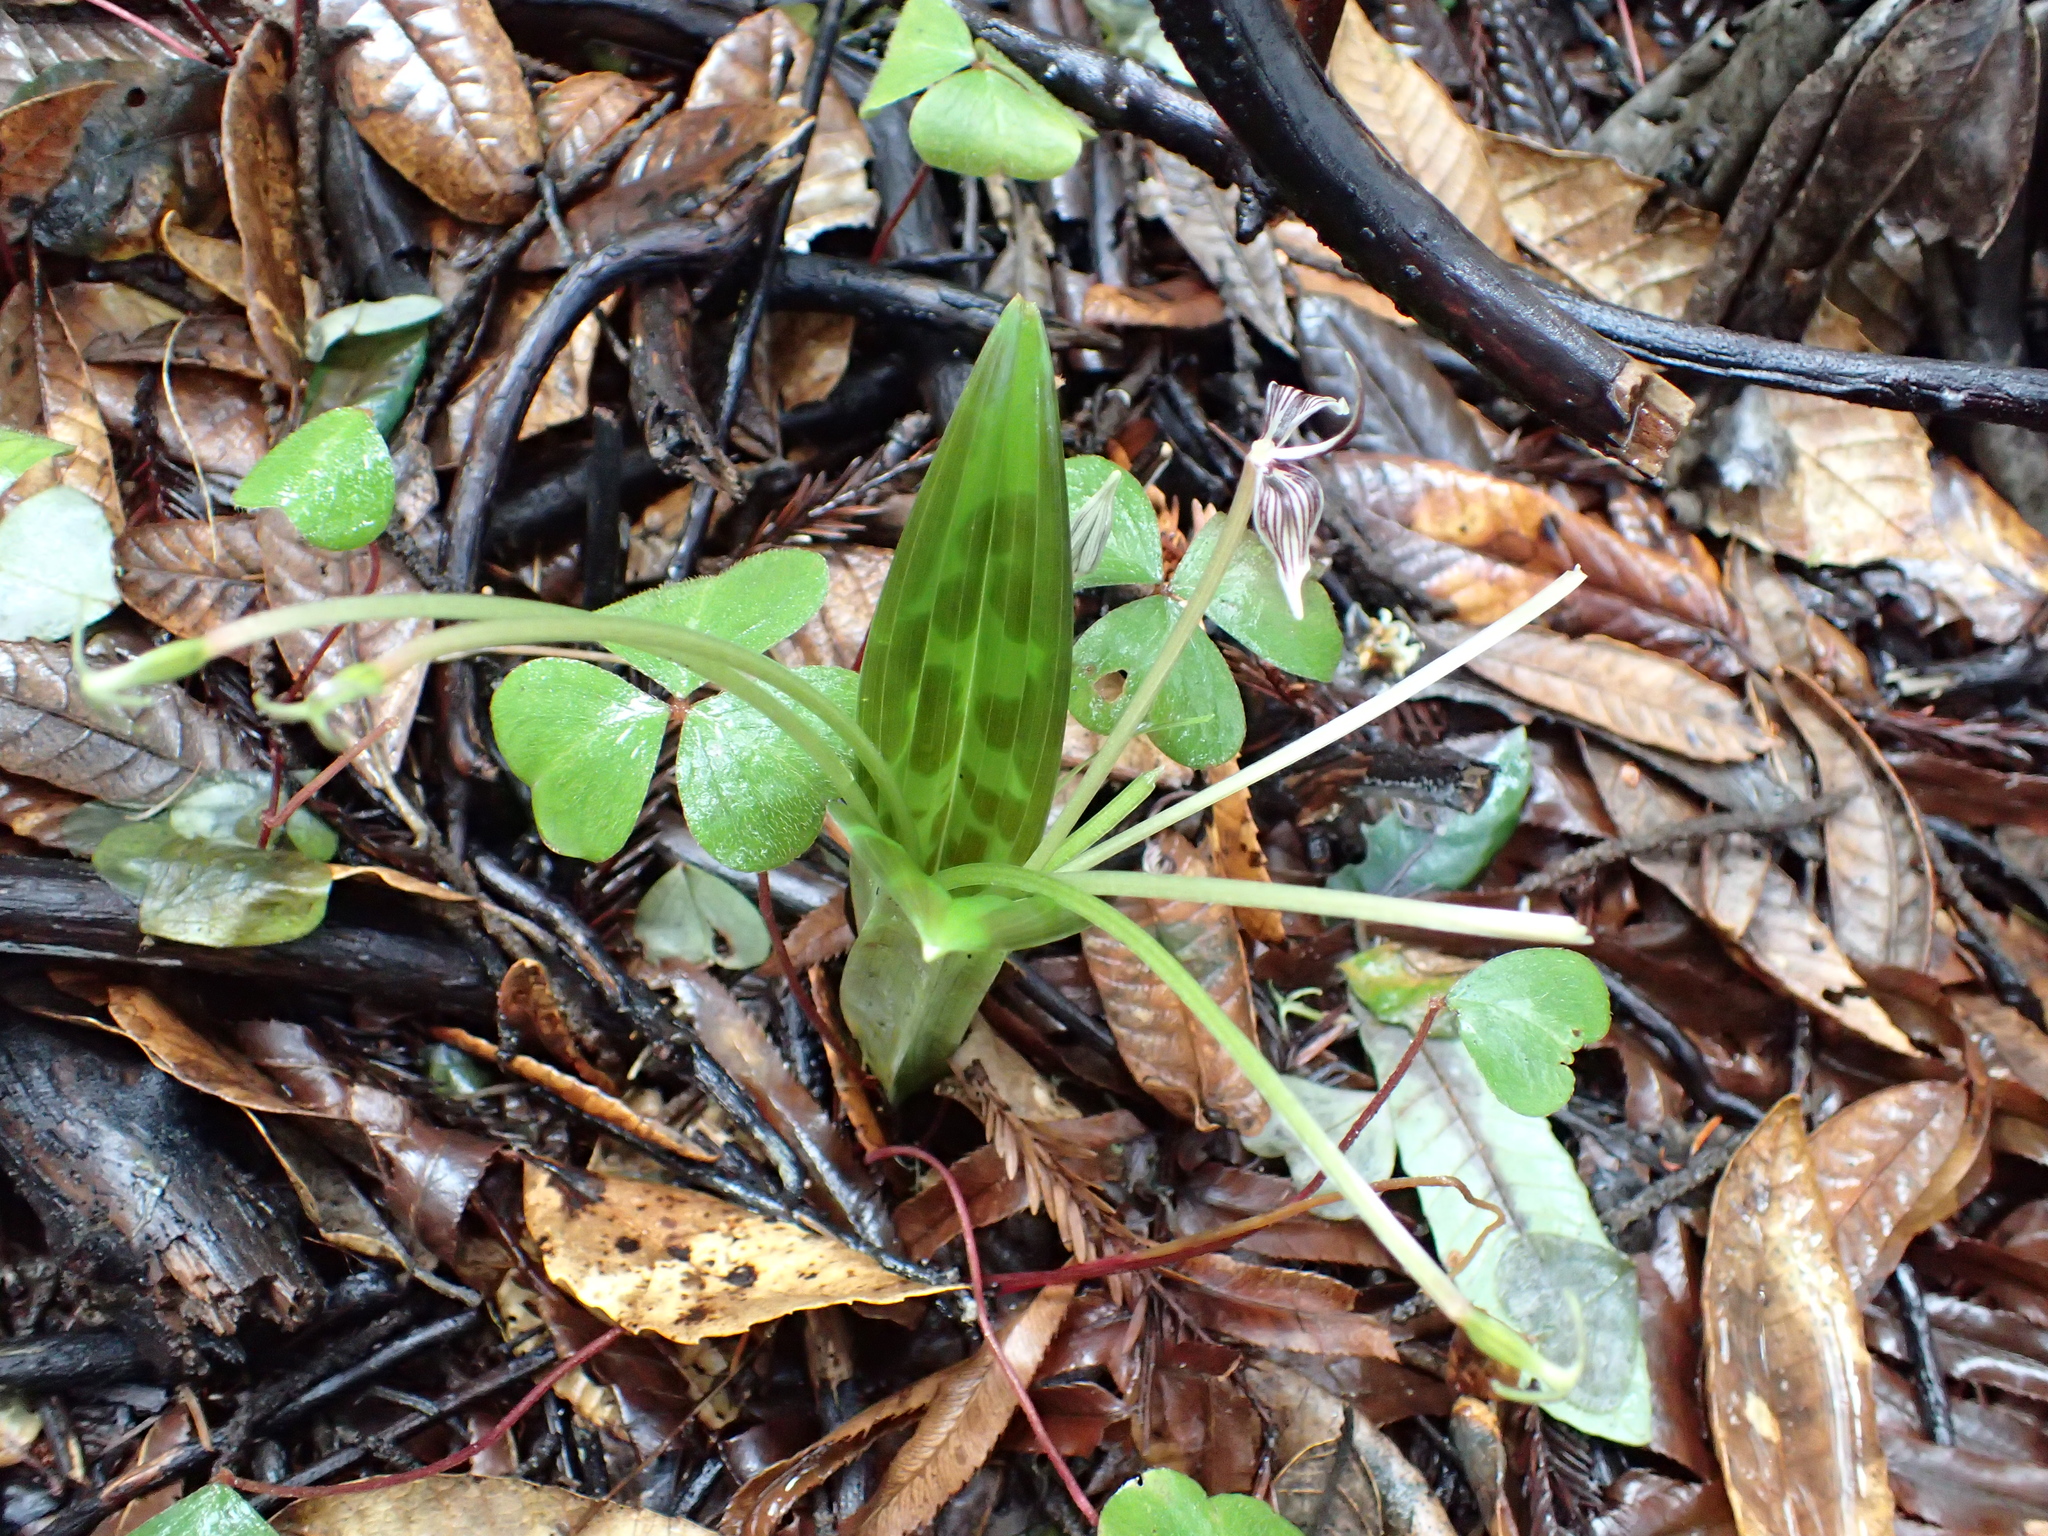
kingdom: Plantae
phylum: Tracheophyta
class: Liliopsida
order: Liliales
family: Liliaceae
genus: Scoliopus
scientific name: Scoliopus bigelovii
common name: Foetid adder's-tongue
